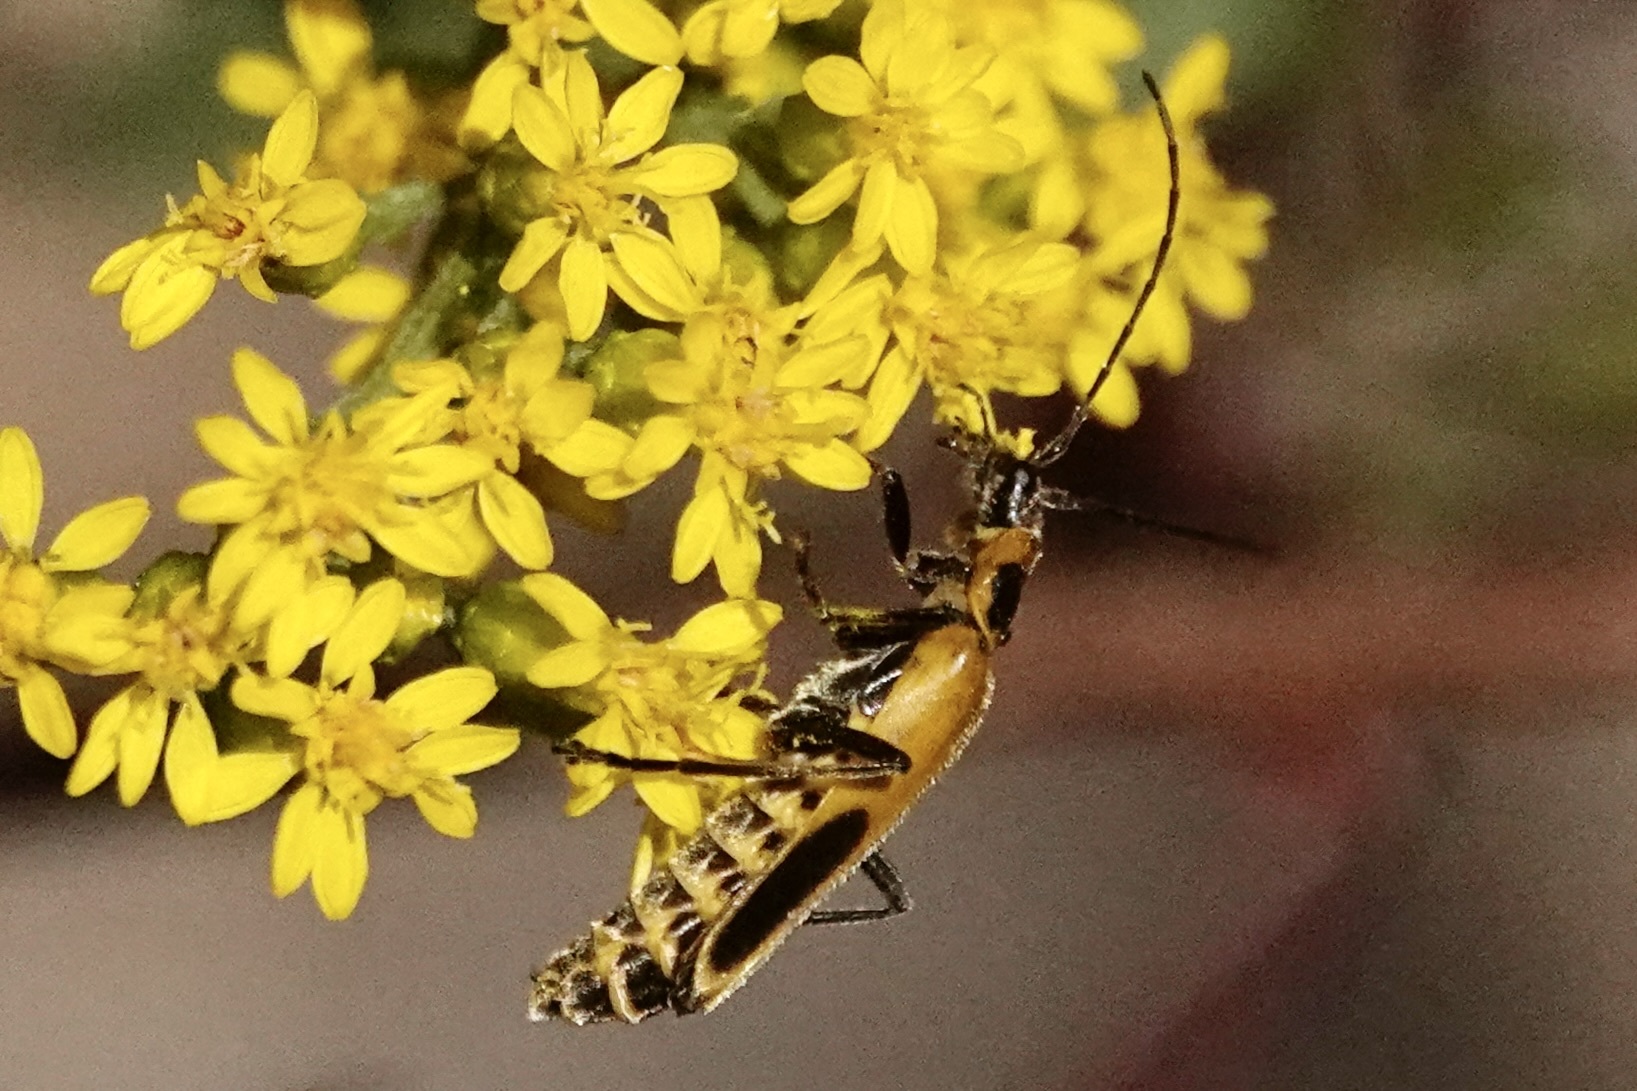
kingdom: Animalia
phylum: Arthropoda
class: Insecta
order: Coleoptera
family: Cantharidae
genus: Chauliognathus
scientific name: Chauliognathus pensylvanicus
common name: Goldenrod soldier beetle
